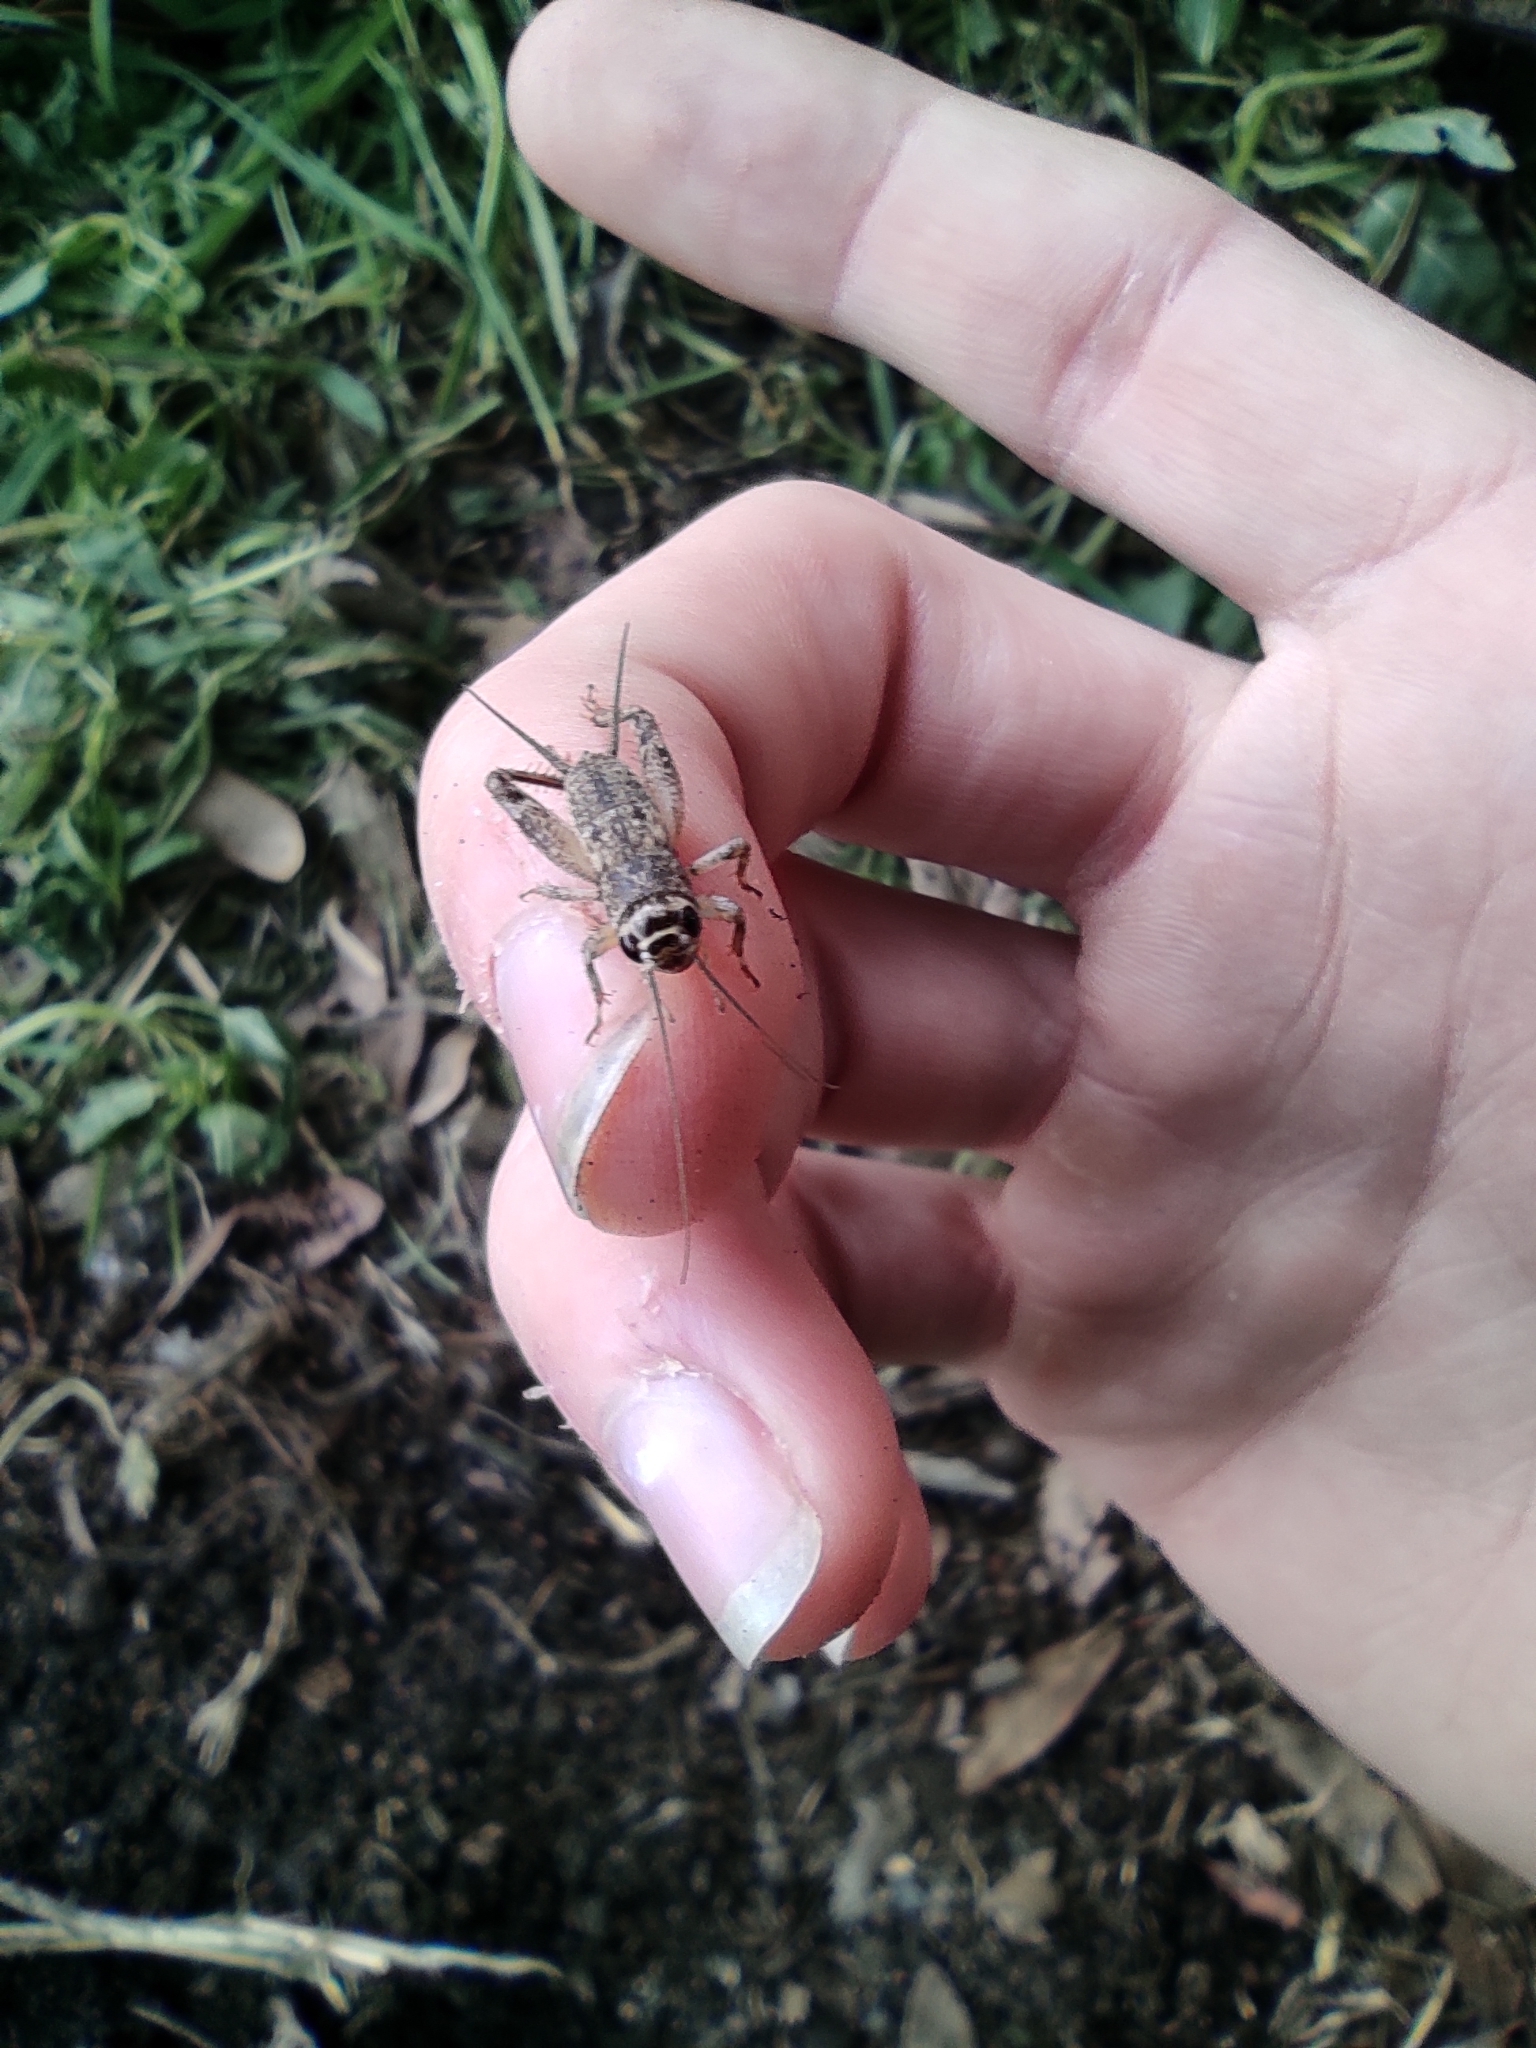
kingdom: Animalia
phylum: Arthropoda
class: Insecta
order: Orthoptera
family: Gryllidae
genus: Eumodicogryllus
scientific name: Eumodicogryllus bordigalensis
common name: Bordeaux cricket
